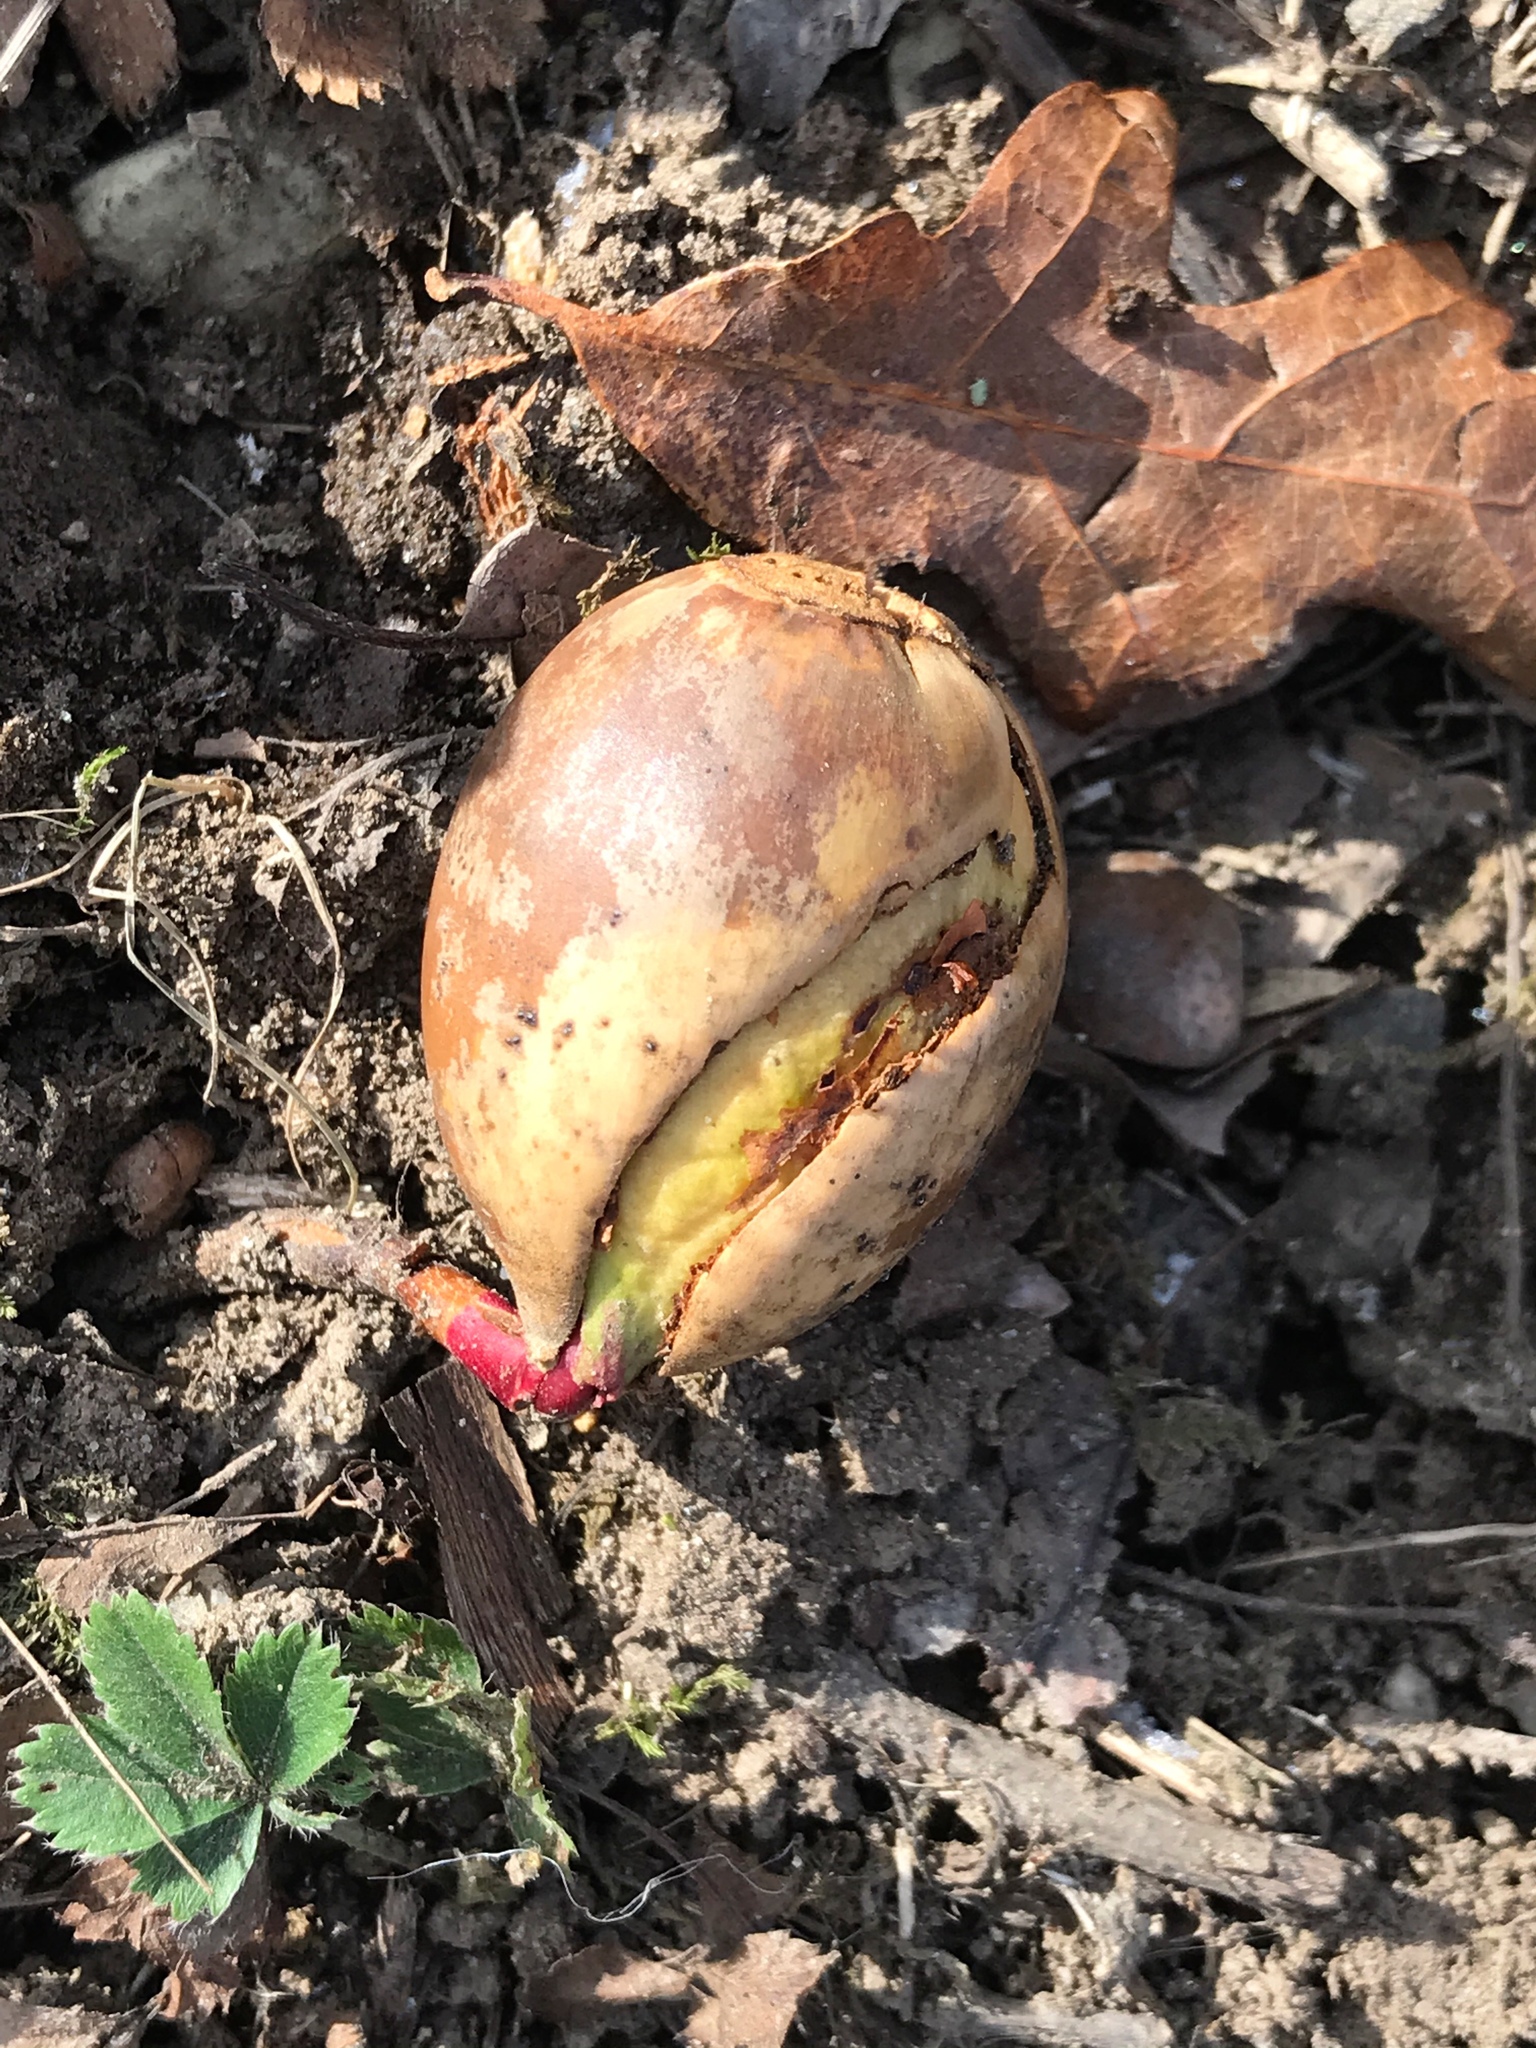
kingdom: Plantae
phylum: Tracheophyta
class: Magnoliopsida
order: Fagales
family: Fagaceae
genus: Quercus
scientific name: Quercus alba
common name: White oak
